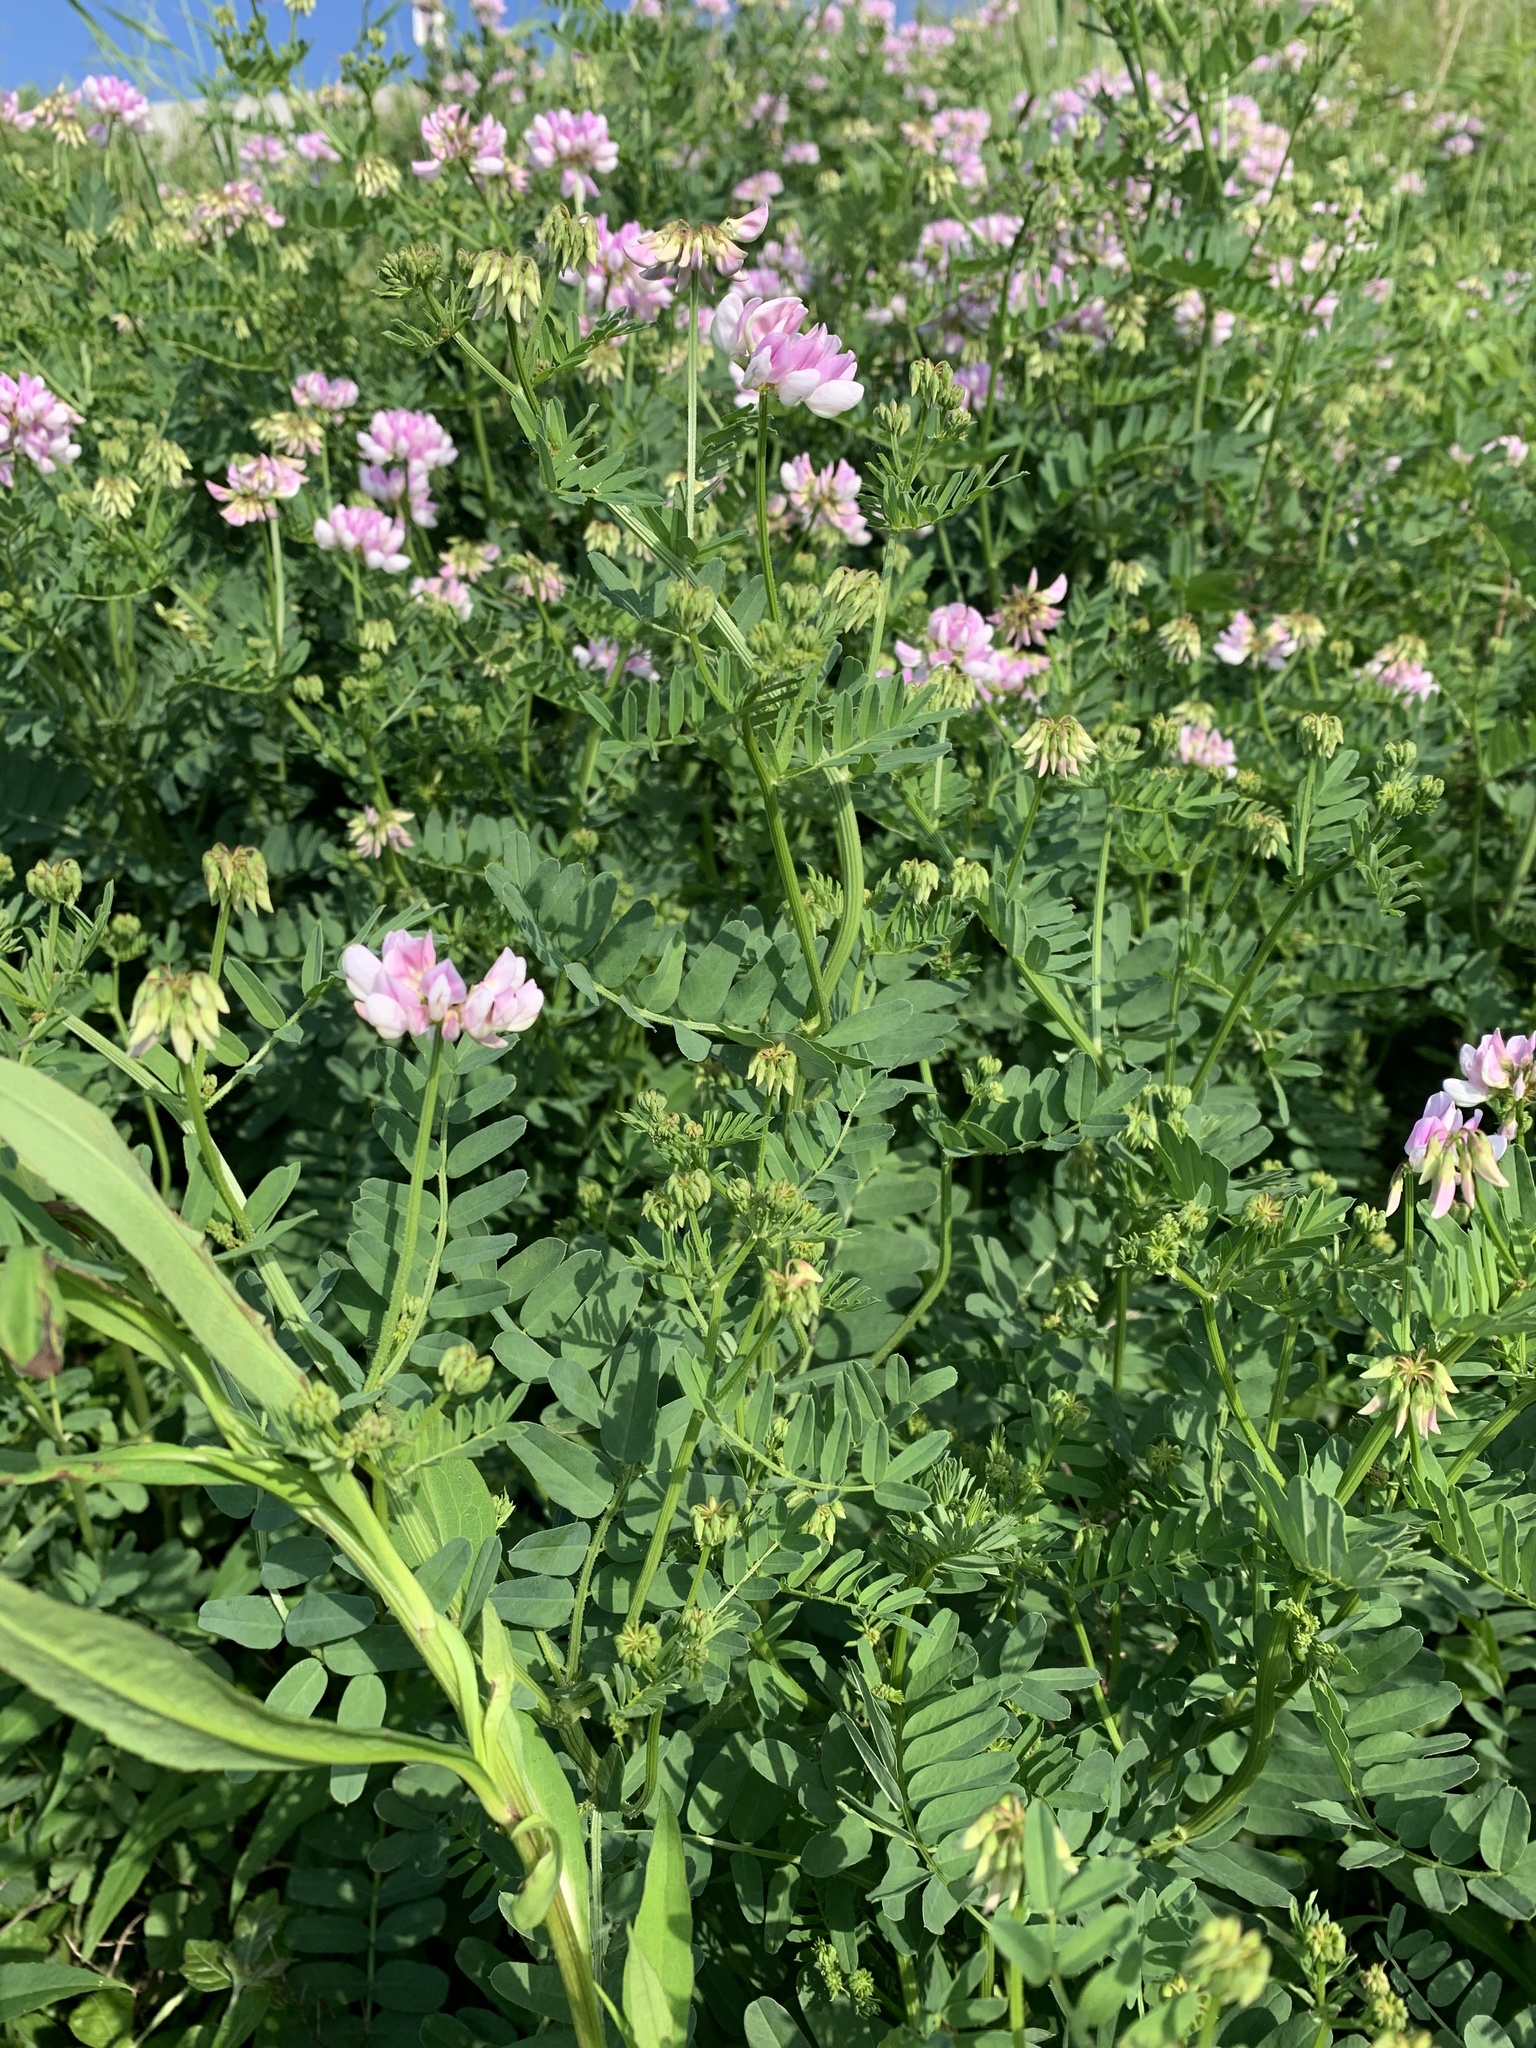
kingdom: Plantae
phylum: Tracheophyta
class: Magnoliopsida
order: Fabales
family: Fabaceae
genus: Coronilla
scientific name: Coronilla varia
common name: Crownvetch
